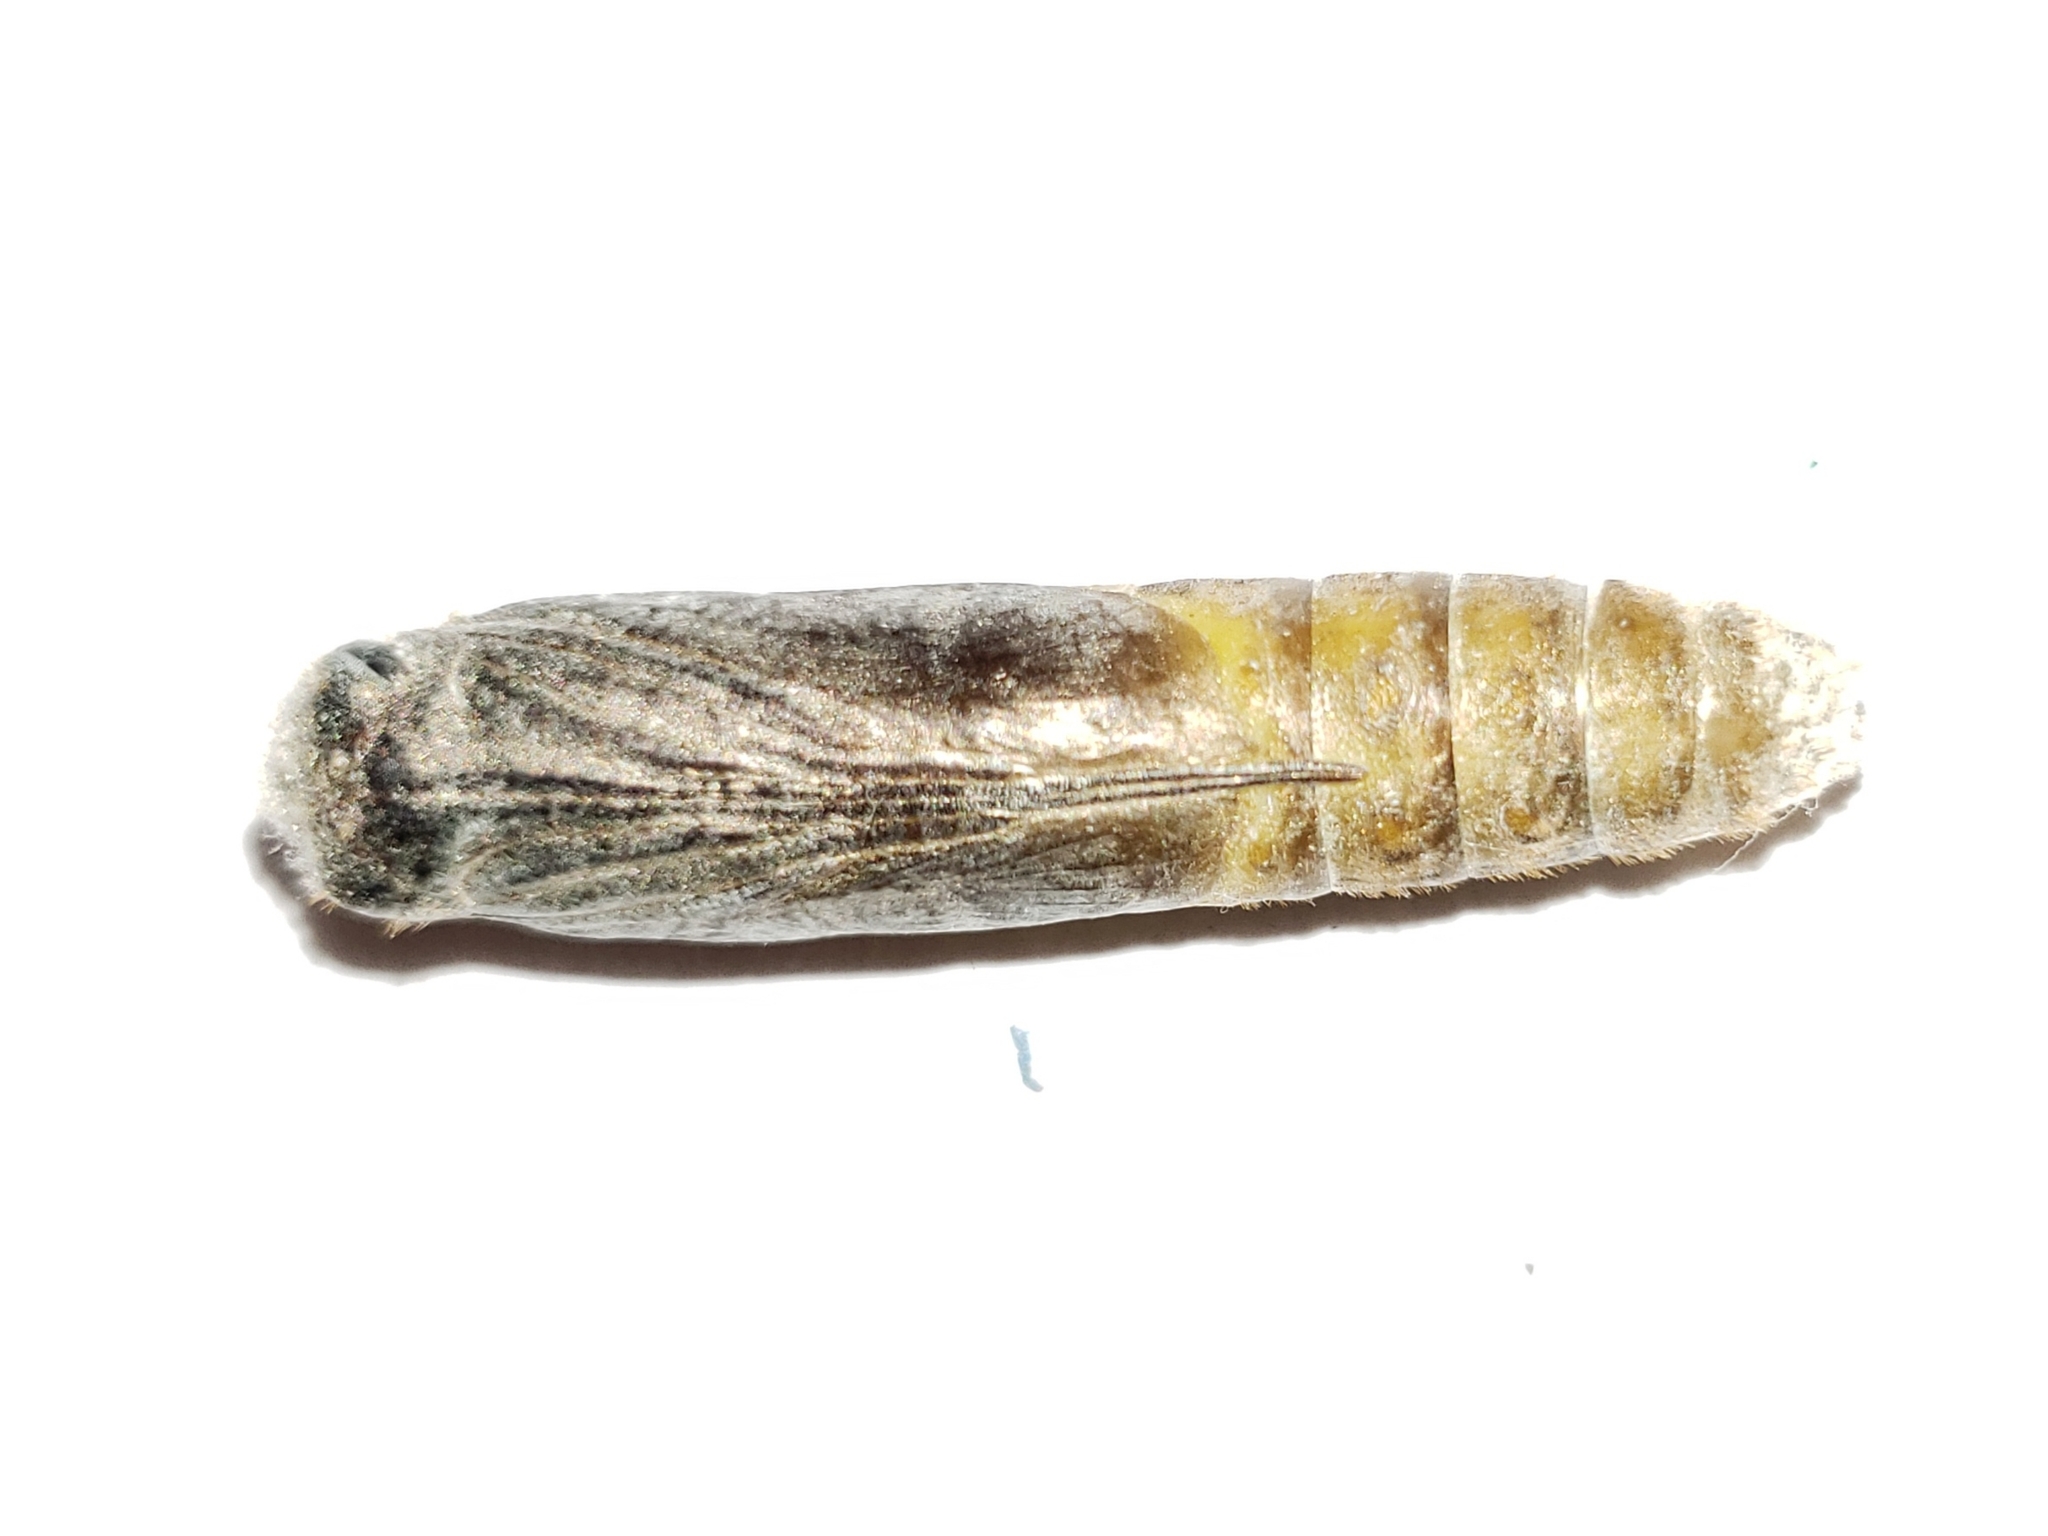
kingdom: Animalia
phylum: Arthropoda
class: Insecta
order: Lepidoptera
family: Hesperiidae
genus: Euphyes
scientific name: Euphyes arpa
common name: Palmetto skipper
